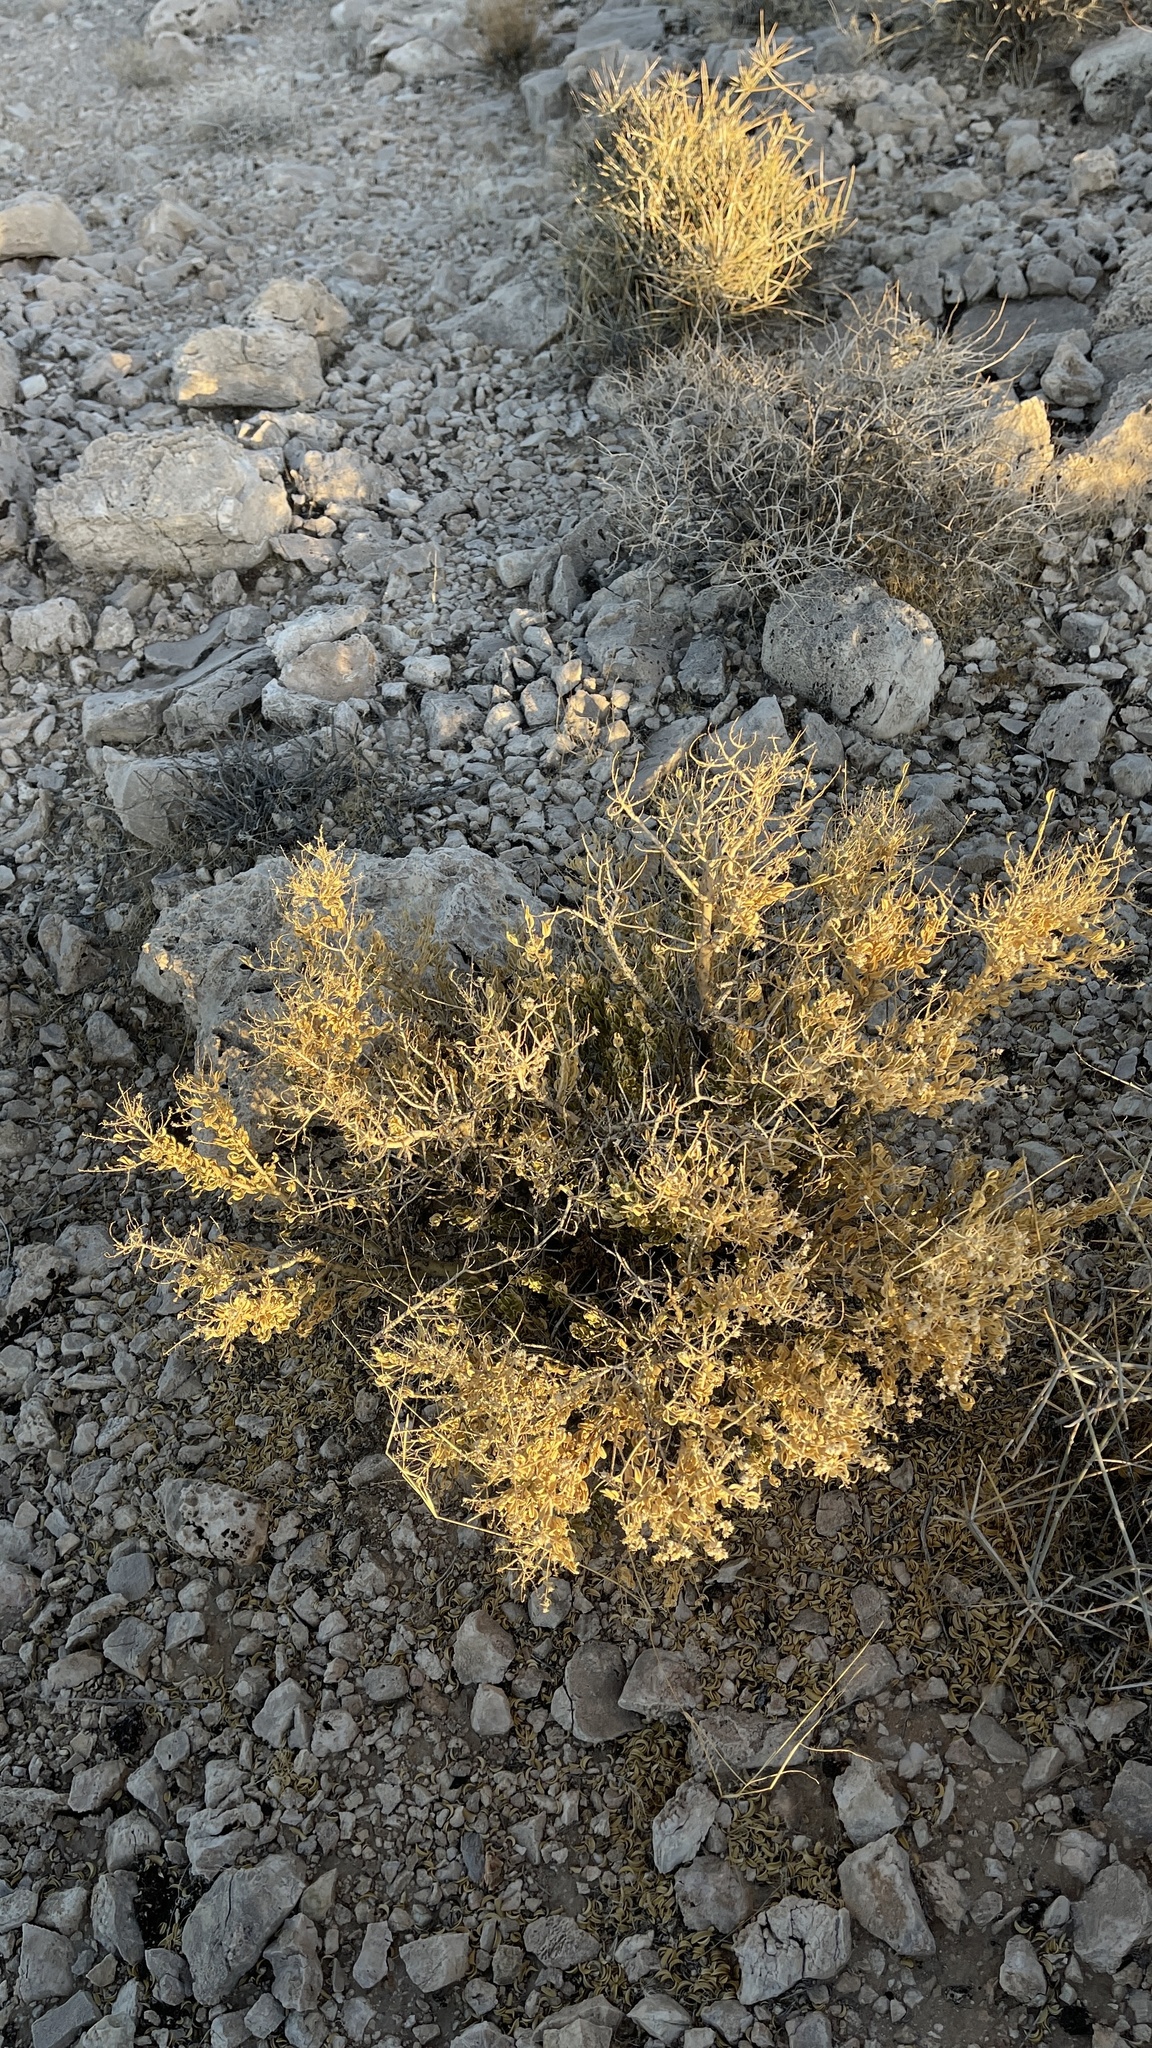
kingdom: Plantae
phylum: Tracheophyta
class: Magnoliopsida
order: Celastrales
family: Celastraceae
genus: Mortonia
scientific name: Mortonia utahensis
